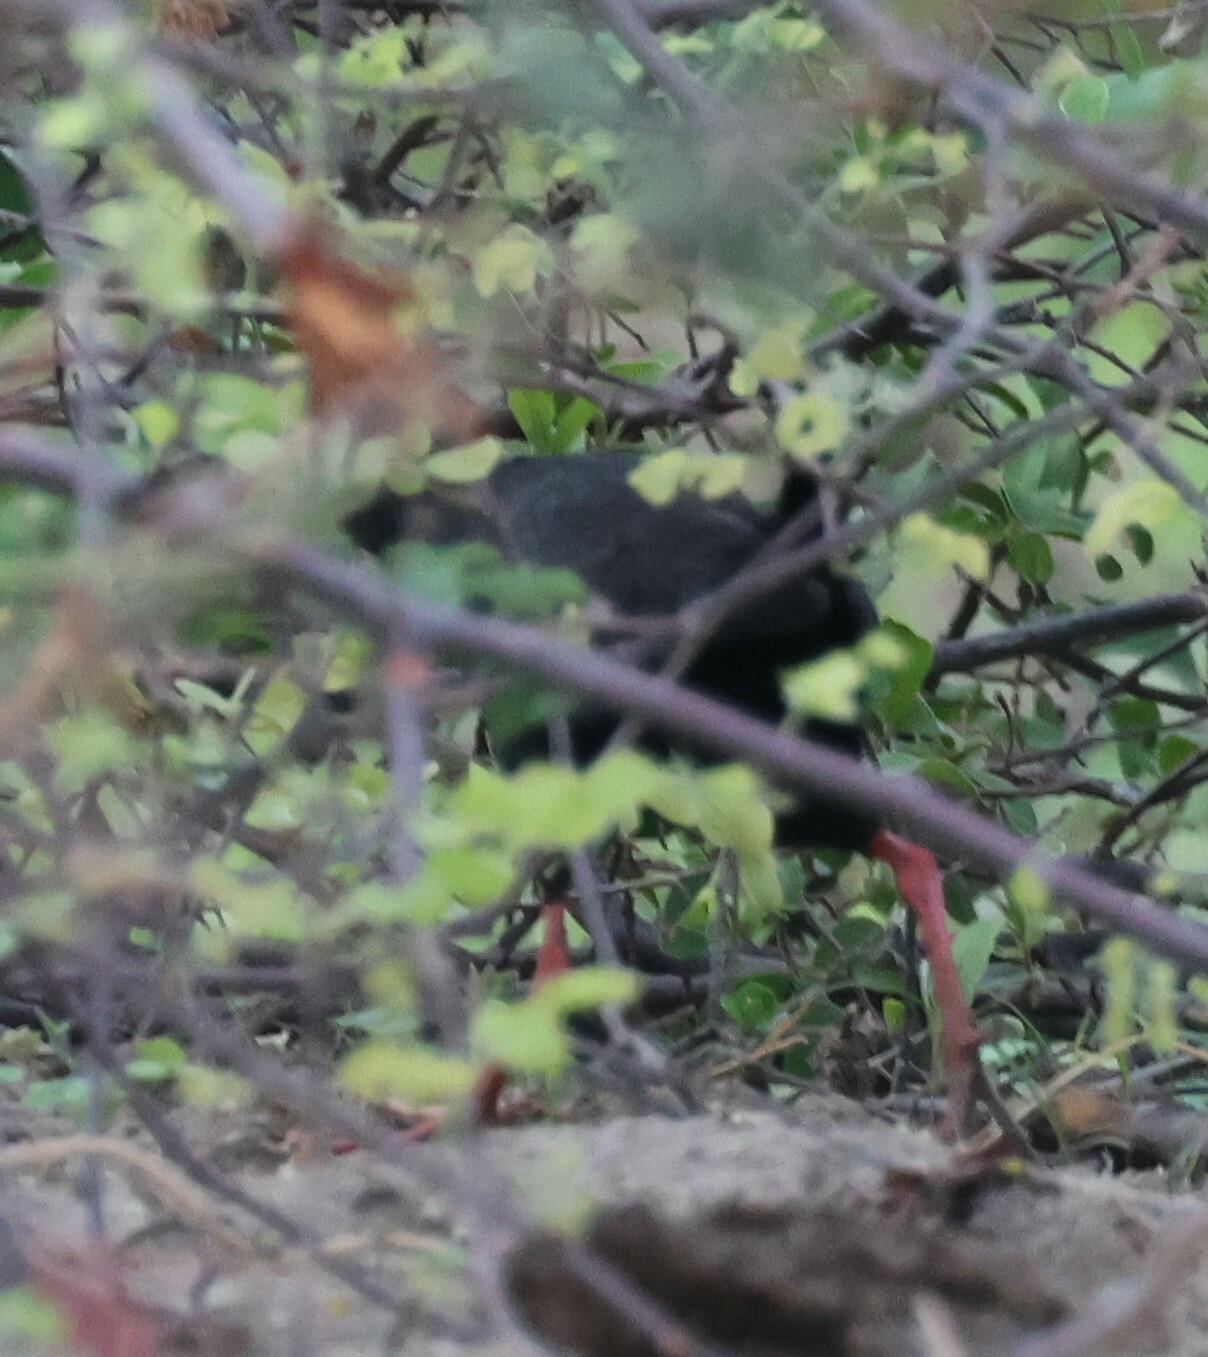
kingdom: Animalia
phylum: Chordata
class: Aves
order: Gruiformes
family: Rallidae
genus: Amaurornis
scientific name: Amaurornis flavirostra
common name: Black crake
